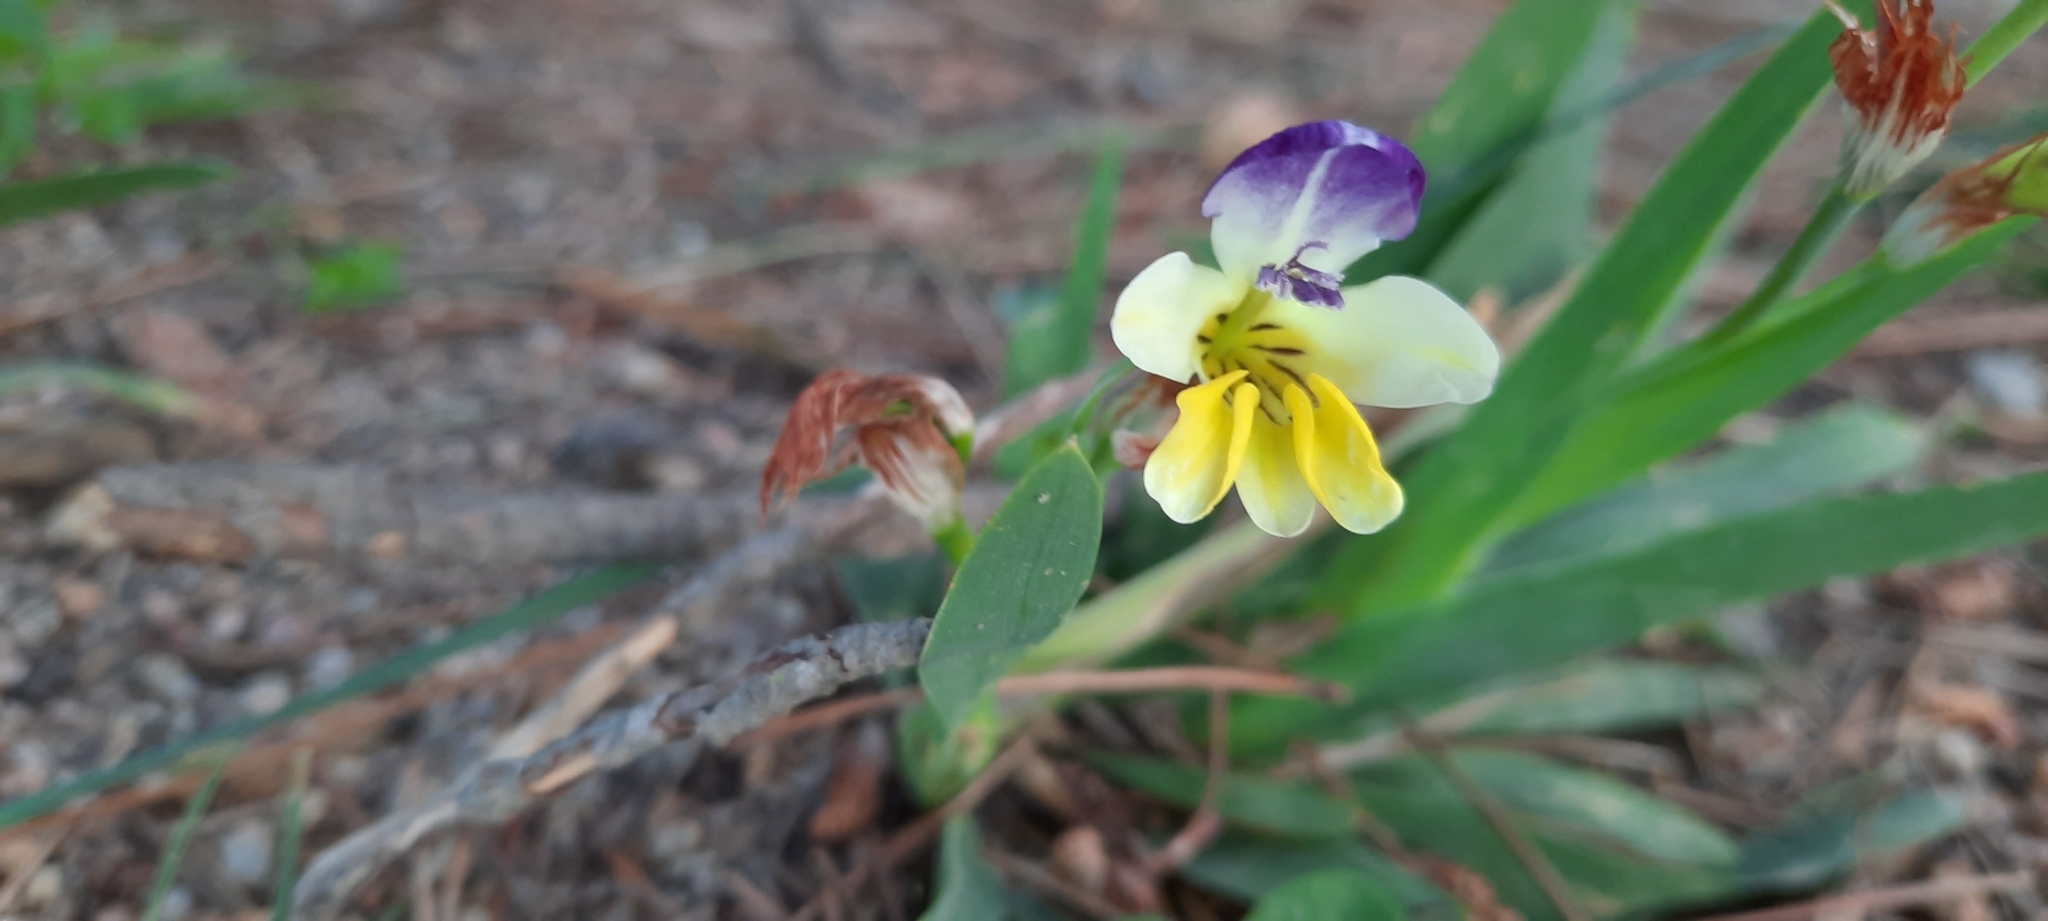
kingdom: Plantae
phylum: Tracheophyta
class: Liliopsida
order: Asparagales
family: Iridaceae
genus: Sparaxis
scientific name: Sparaxis villosa
